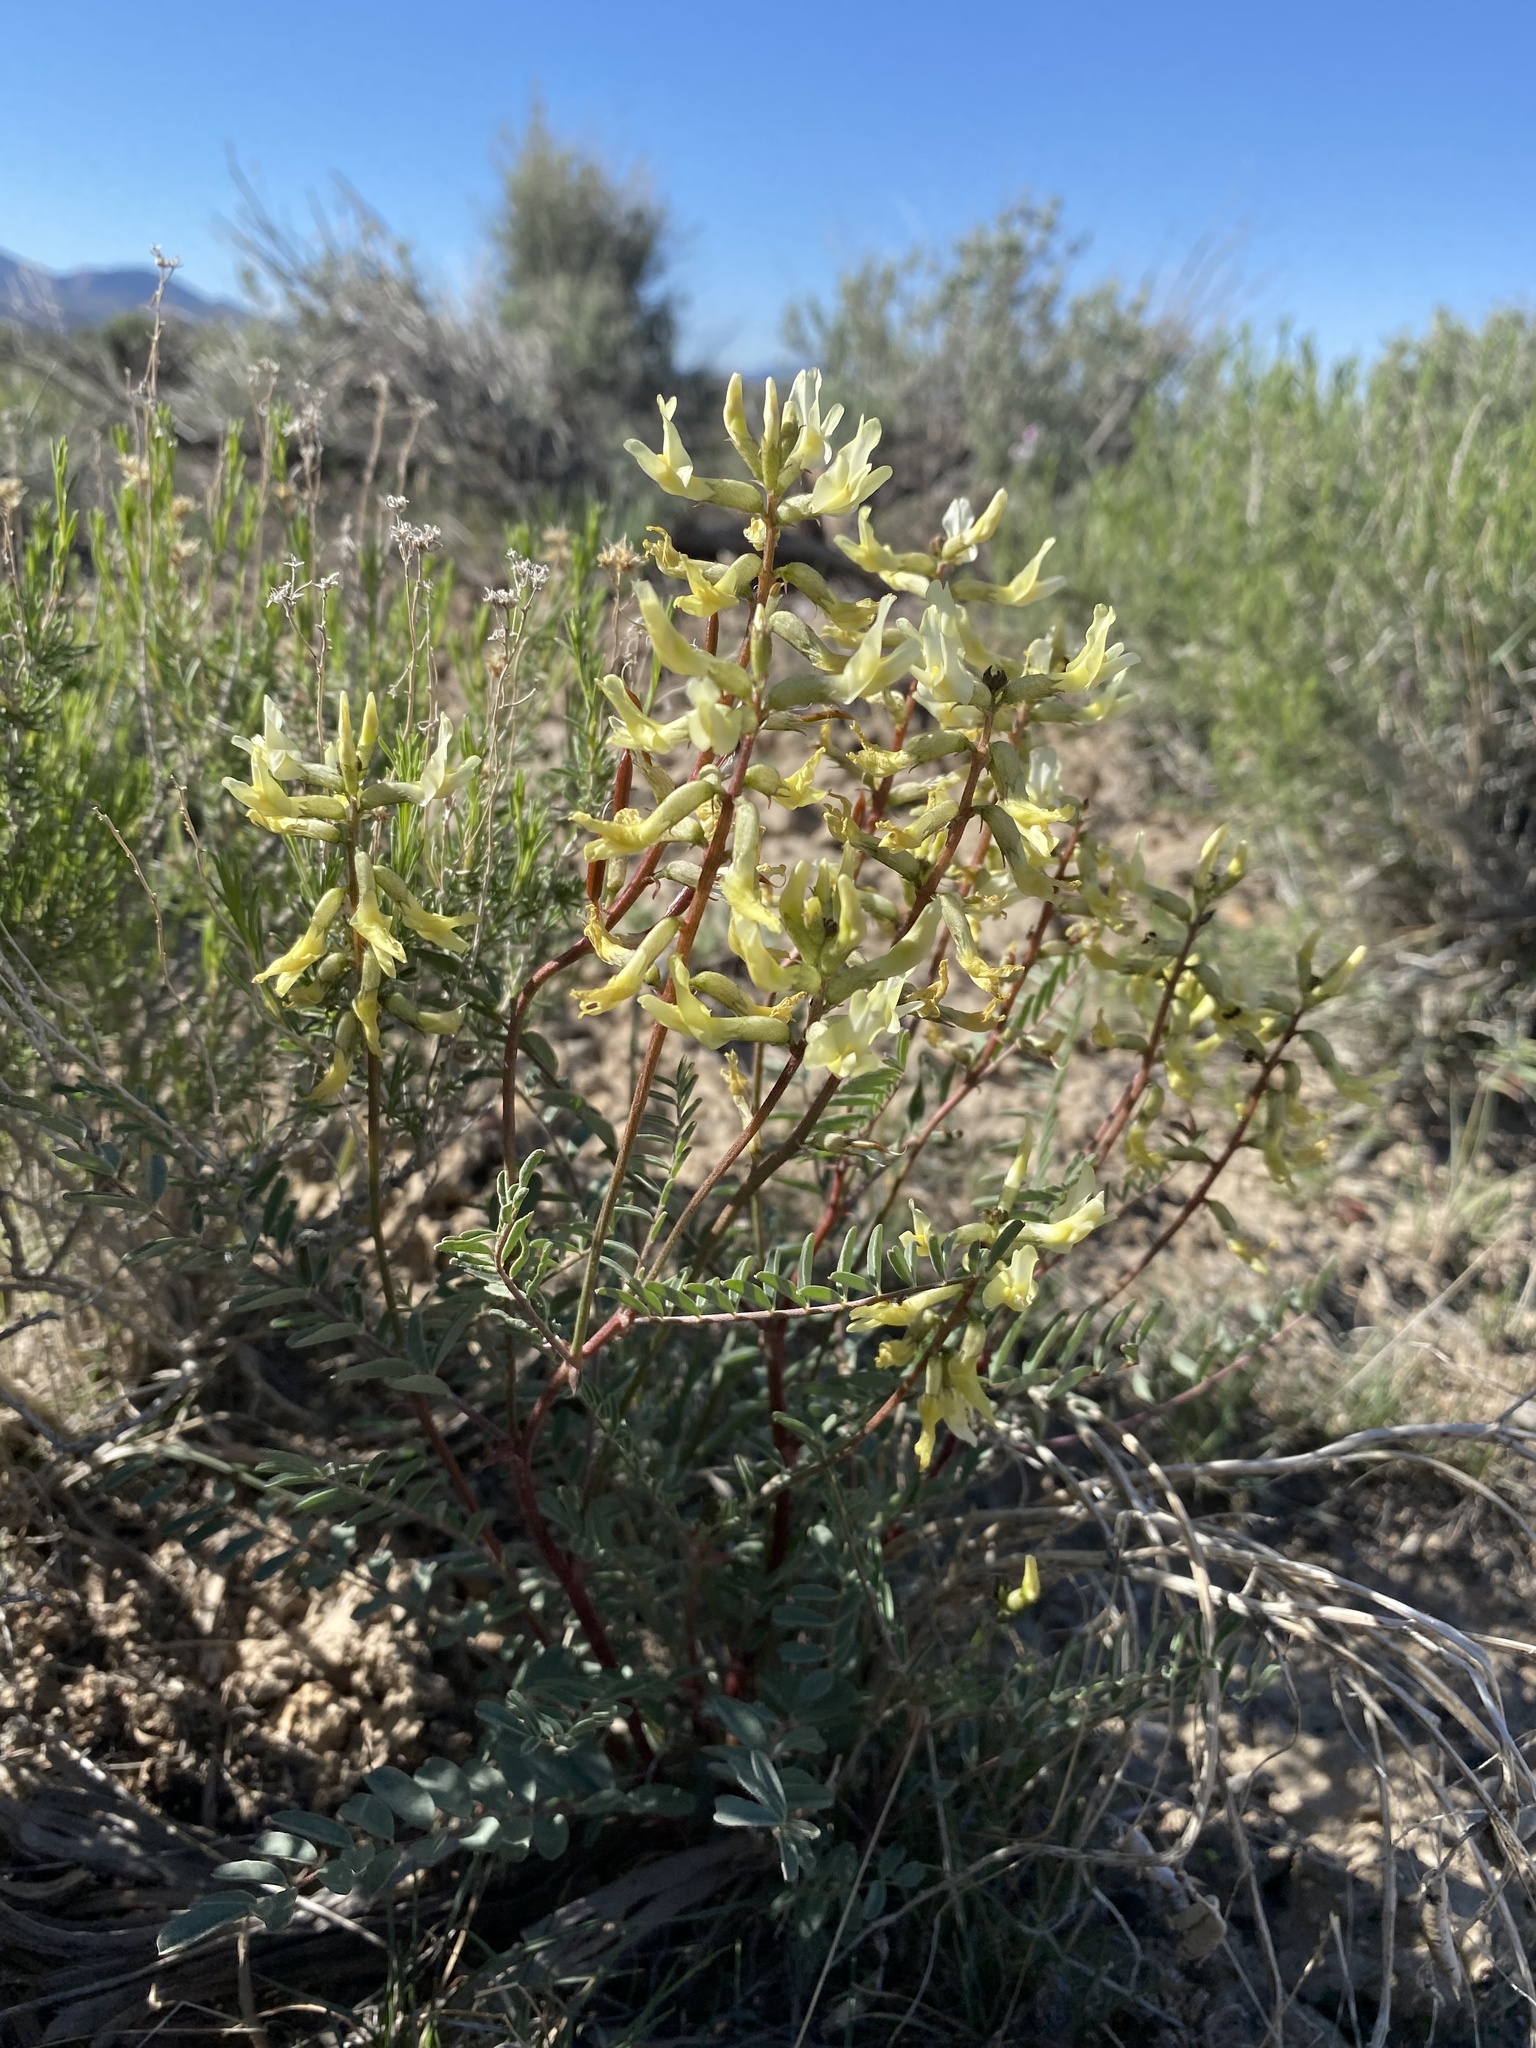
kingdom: Plantae
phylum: Tracheophyta
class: Magnoliopsida
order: Fabales
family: Fabaceae
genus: Astragalus
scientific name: Astragalus eremiticus
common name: Hermit milk-vetch
